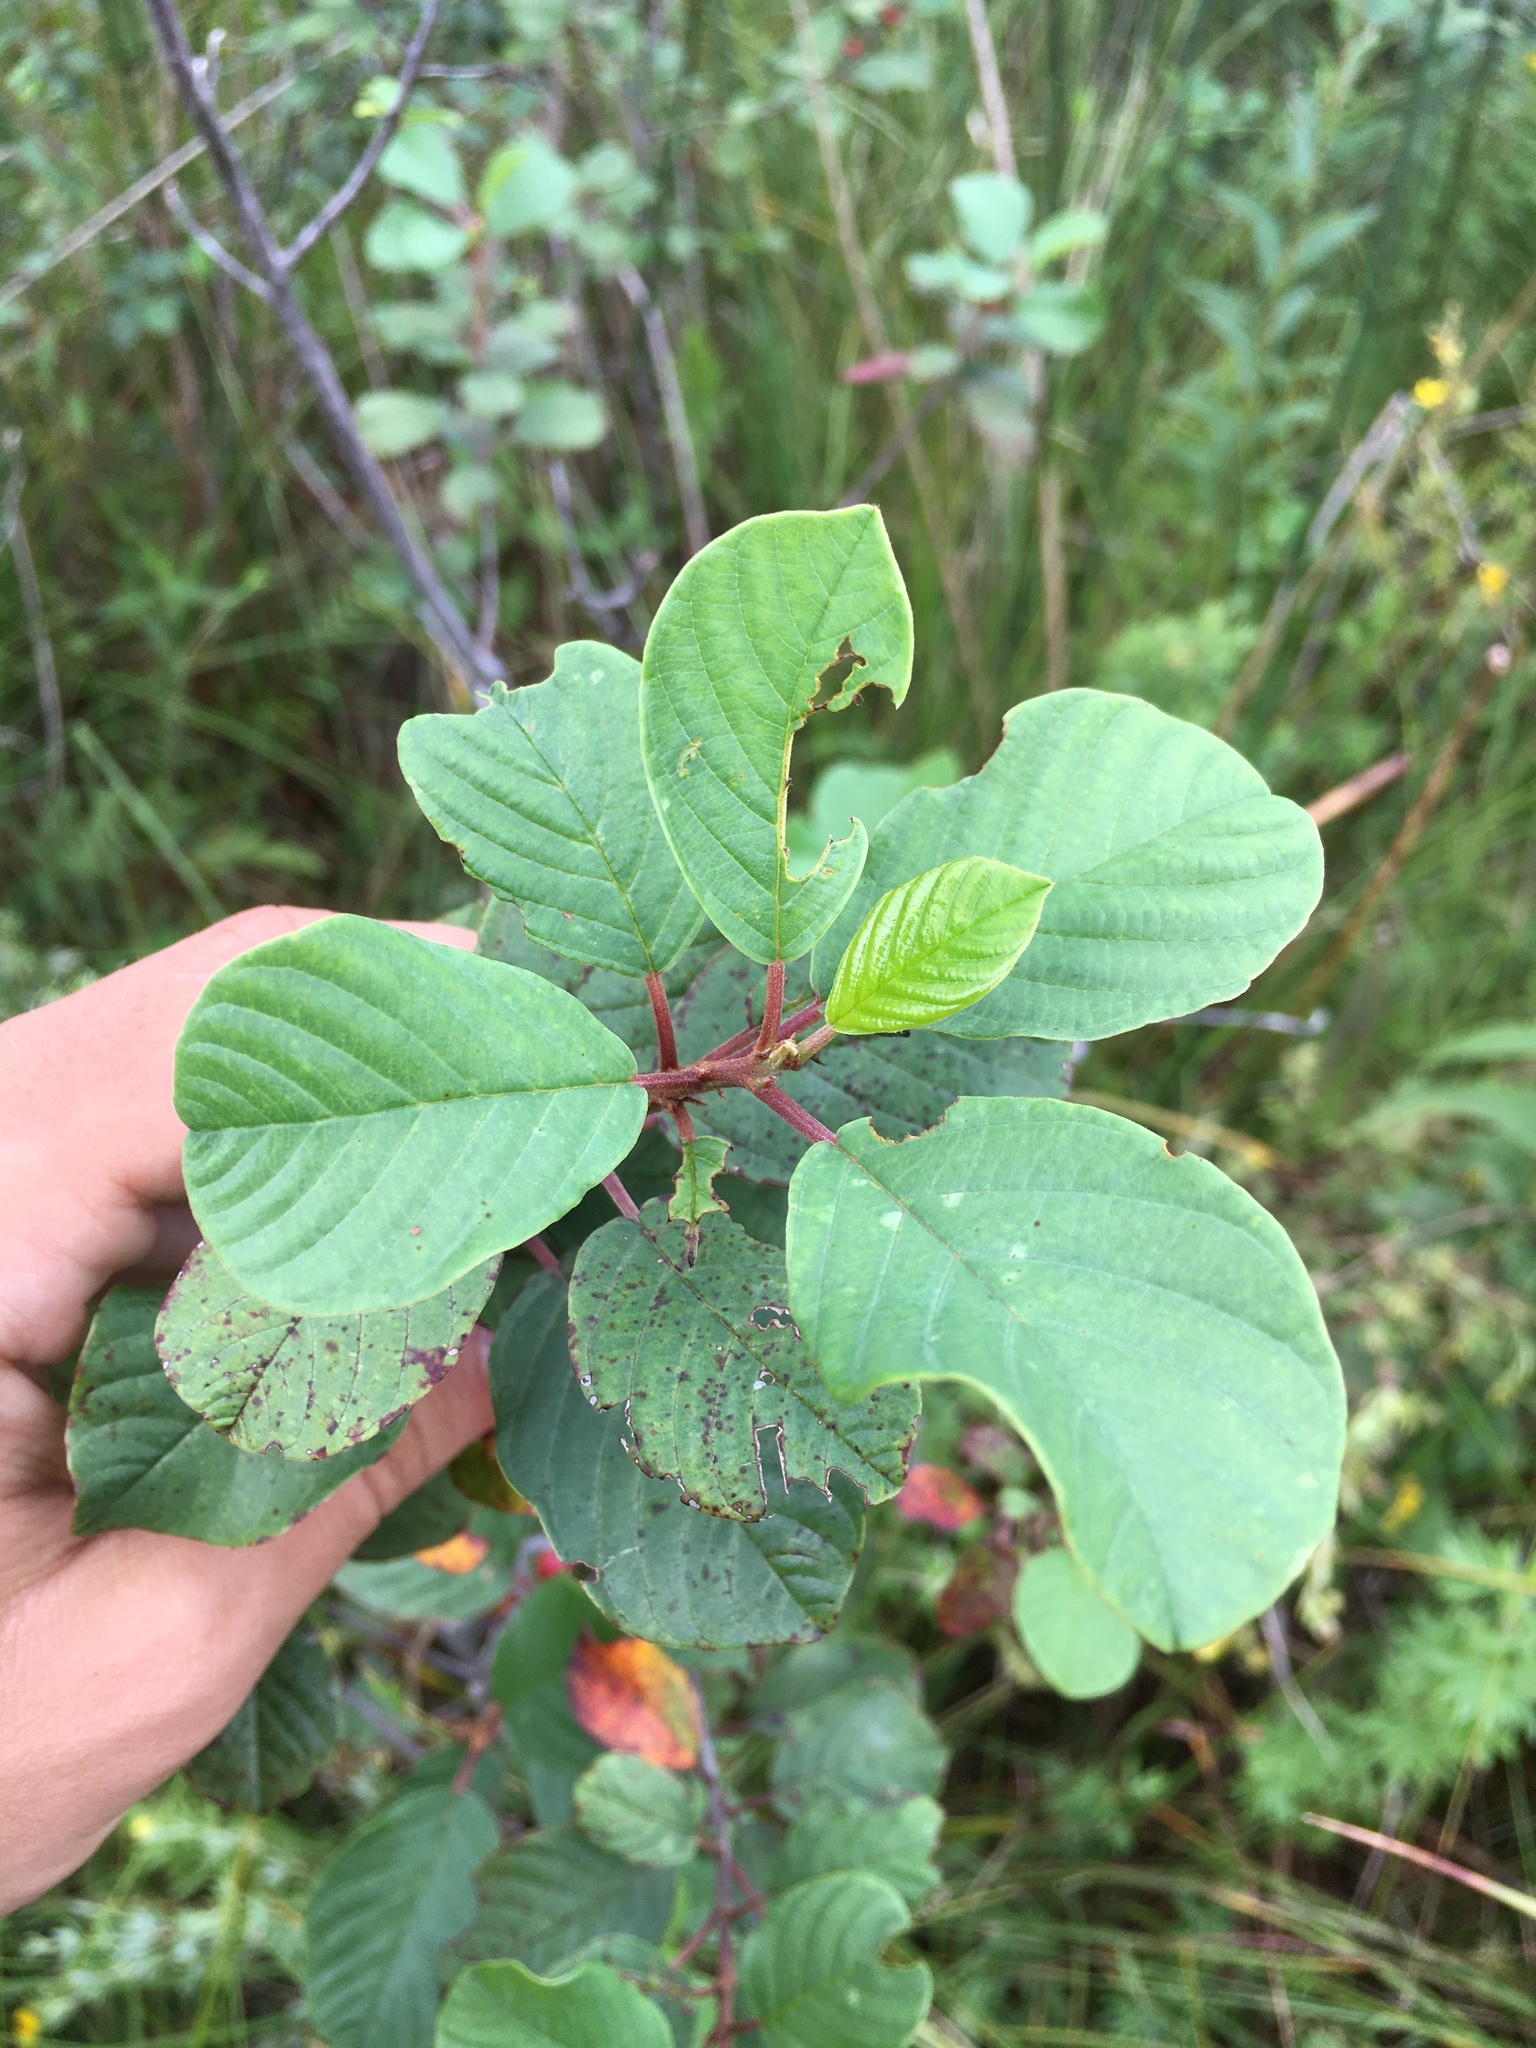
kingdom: Plantae
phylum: Tracheophyta
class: Magnoliopsida
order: Rosales
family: Rhamnaceae
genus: Frangula
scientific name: Frangula alnus
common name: Alder buckthorn
